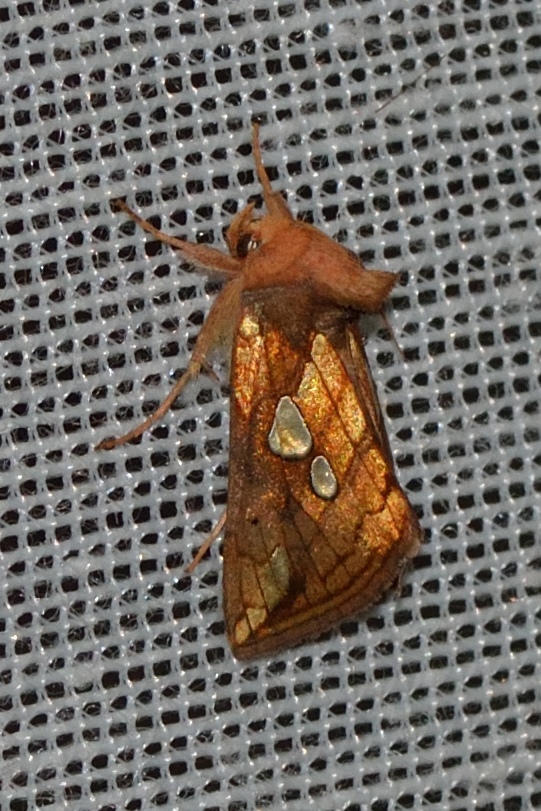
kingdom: Animalia
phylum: Arthropoda
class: Insecta
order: Lepidoptera
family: Noctuidae
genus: Plusia
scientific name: Plusia putnami
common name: Lempke's gold spot
